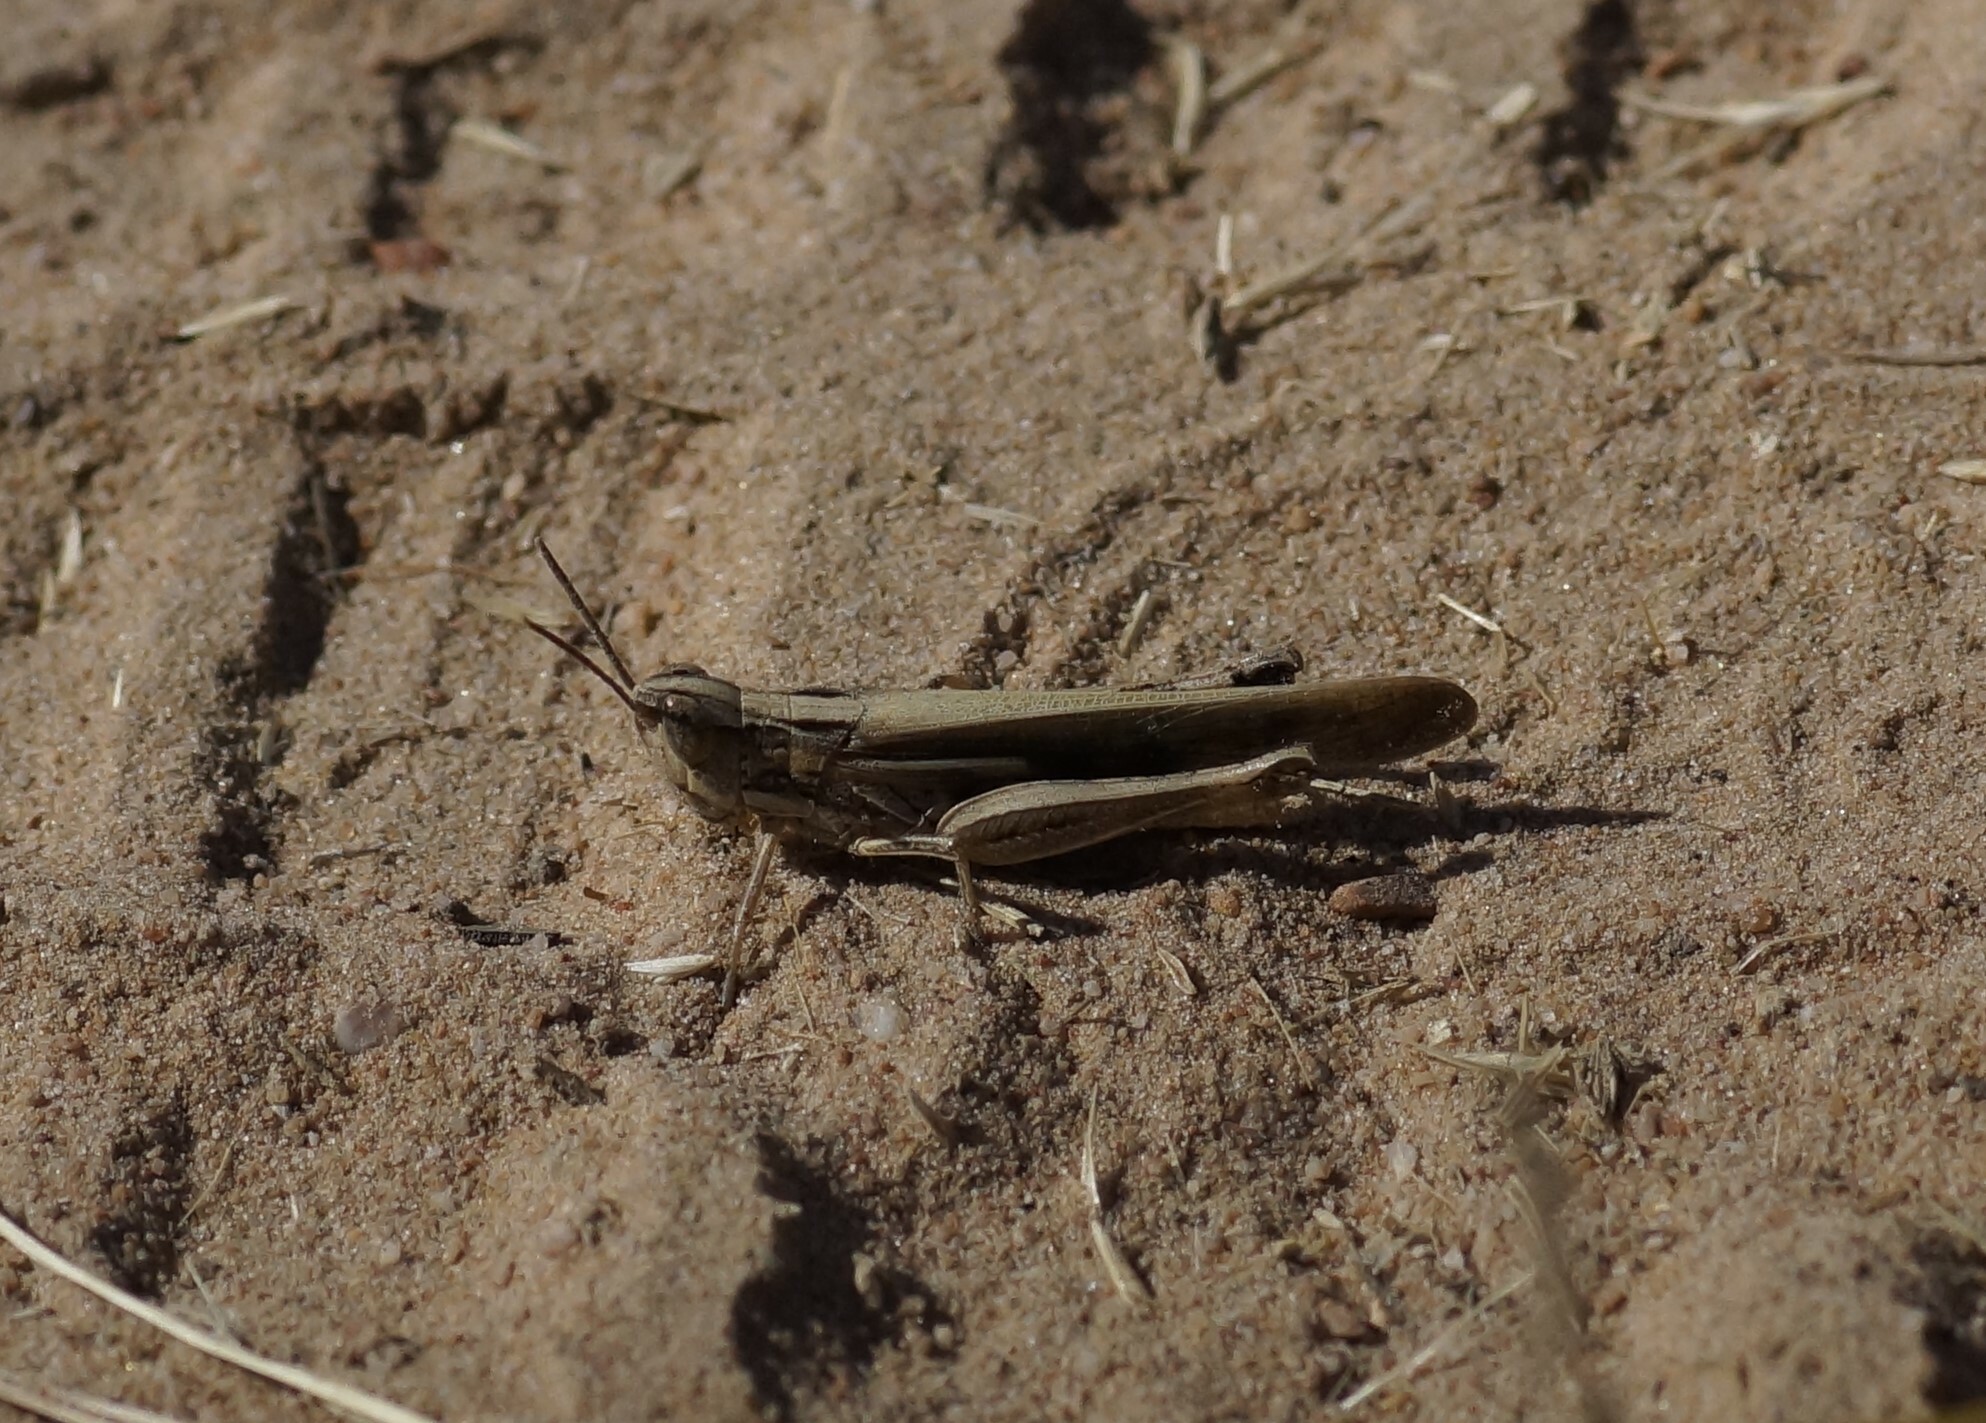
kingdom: Animalia
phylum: Arthropoda
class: Insecta
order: Orthoptera
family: Acrididae
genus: Aiolopus
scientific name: Aiolopus thalassinus
